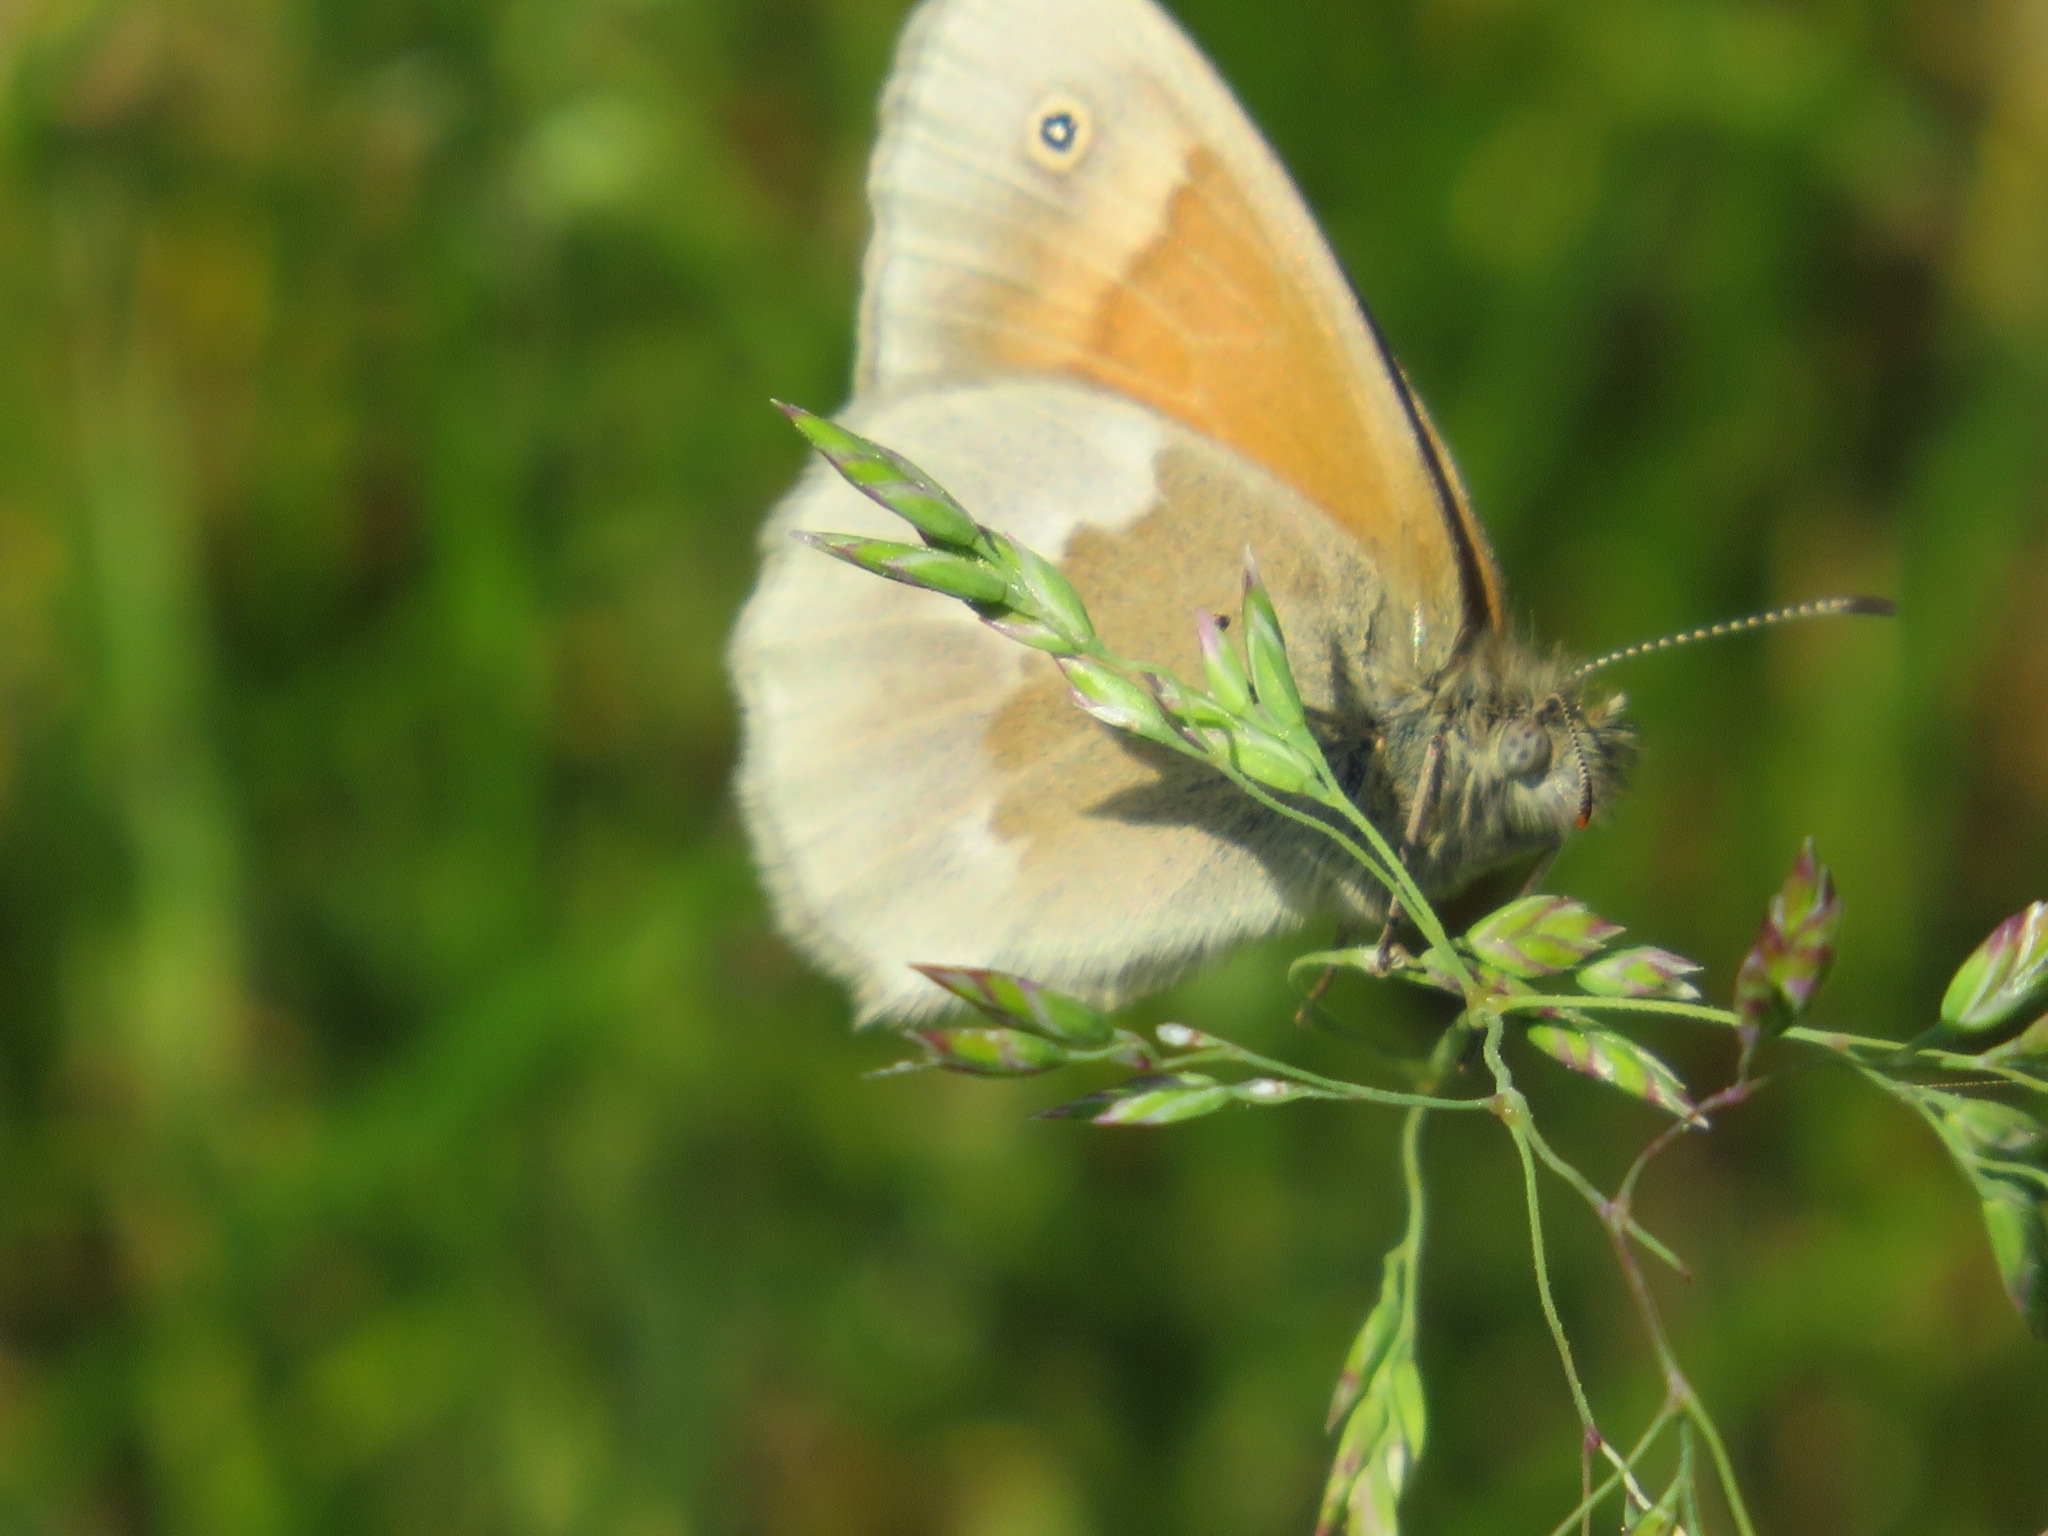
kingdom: Animalia
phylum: Arthropoda
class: Insecta
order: Lepidoptera
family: Nymphalidae
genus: Coenonympha
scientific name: Coenonympha california
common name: Common ringlet
